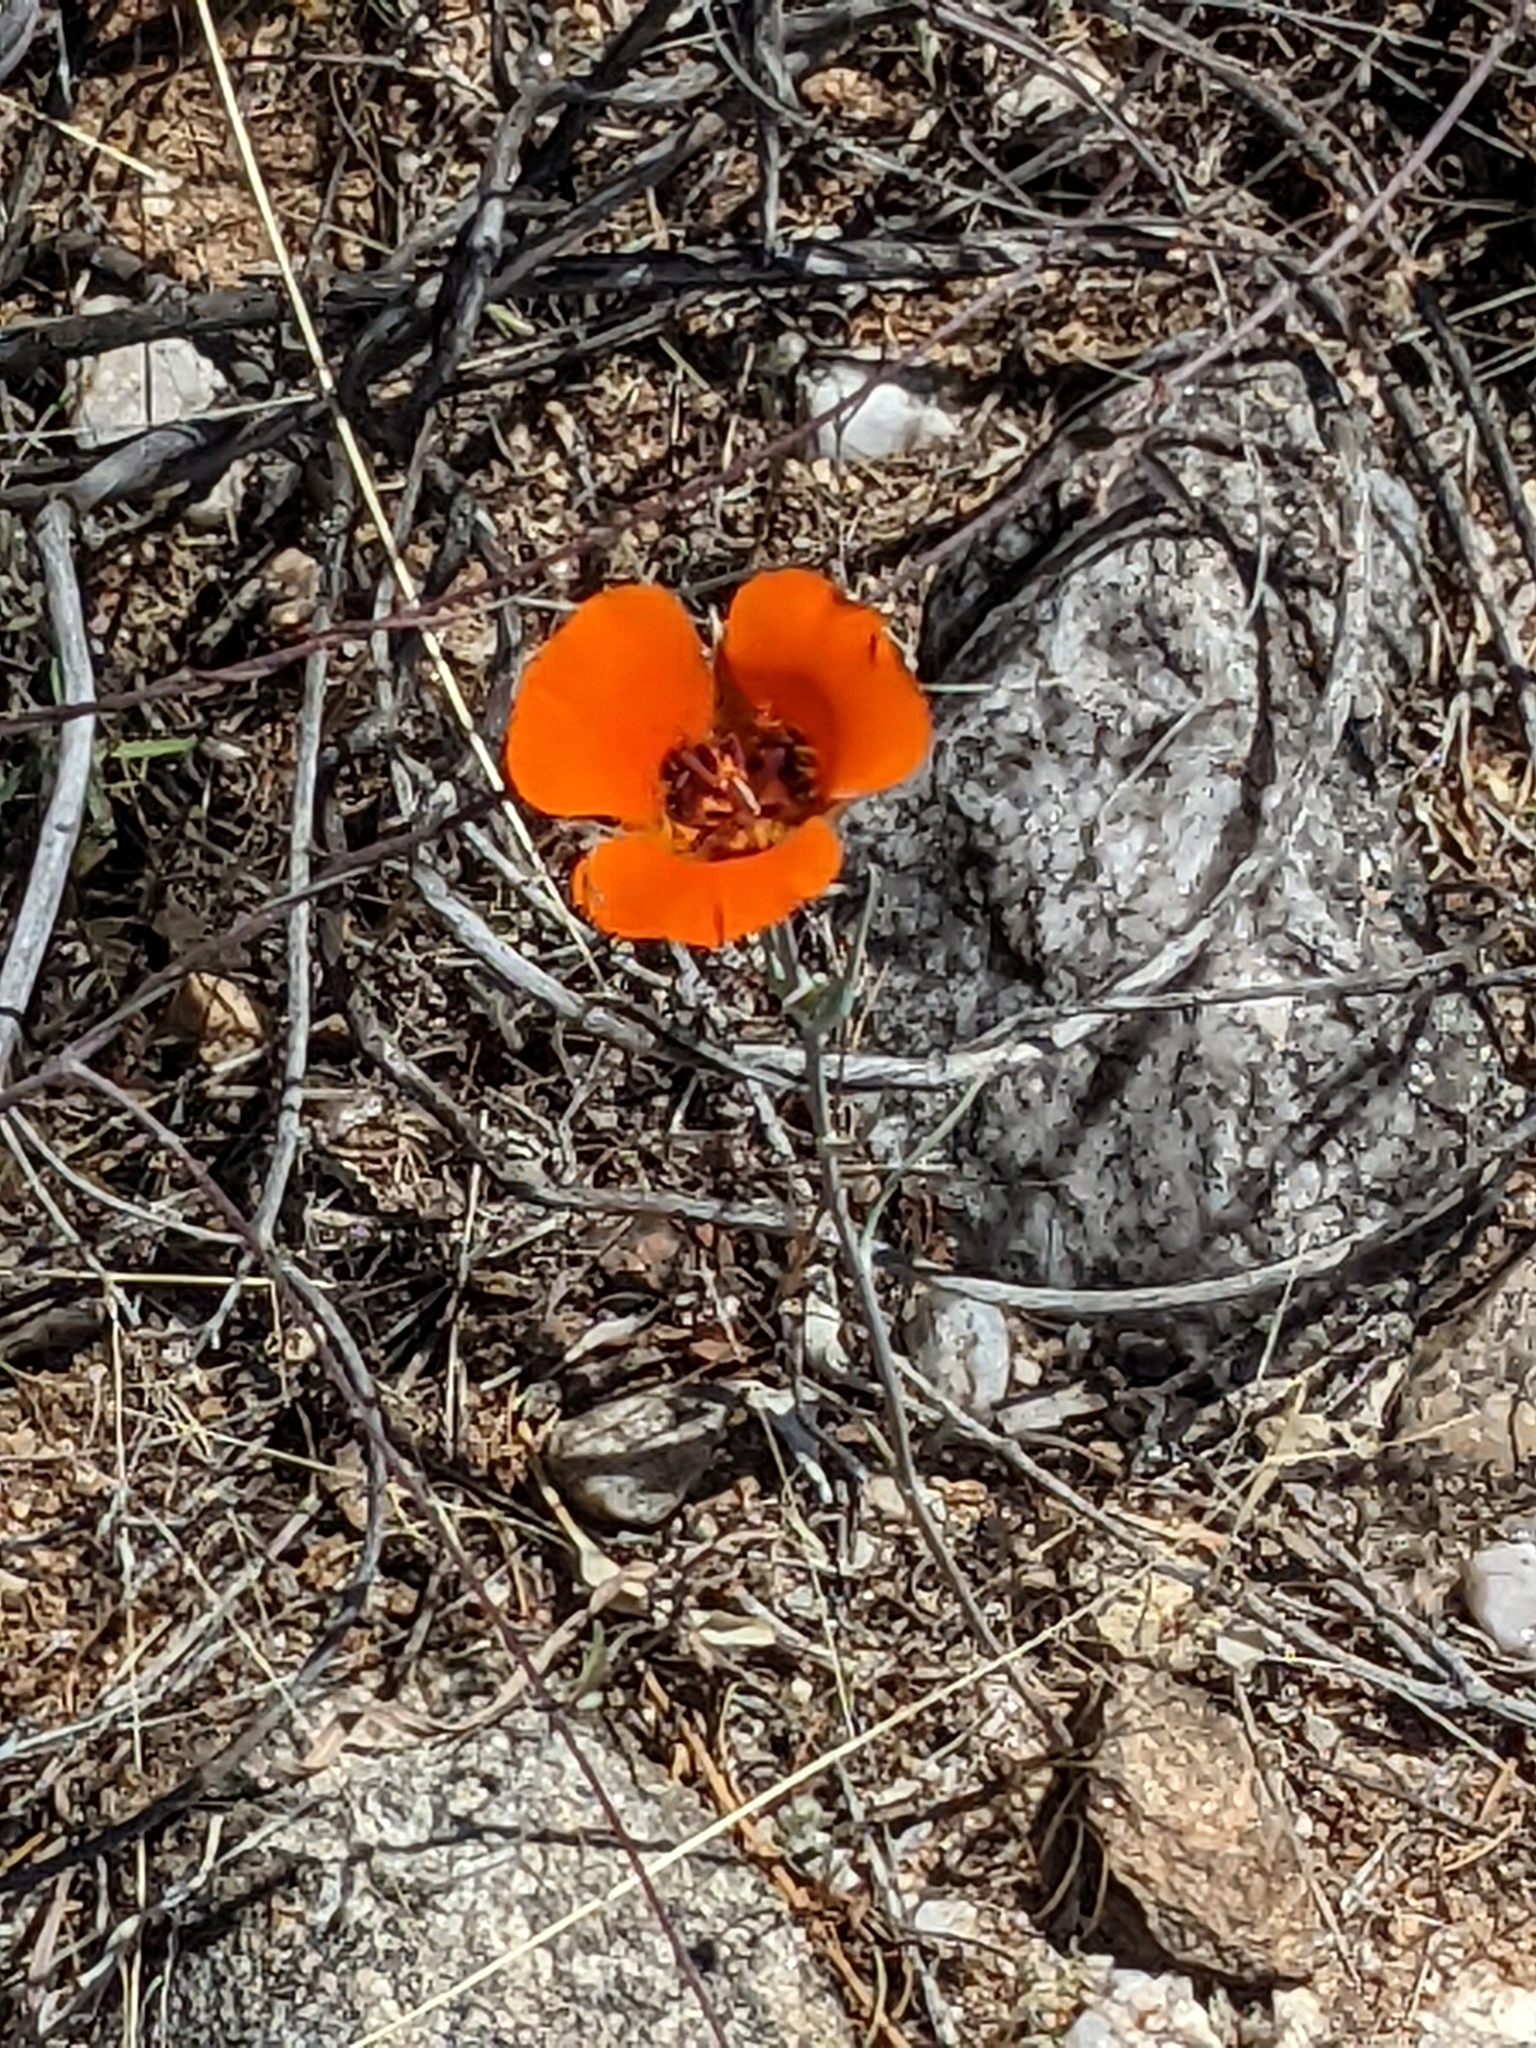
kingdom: Plantae
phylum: Tracheophyta
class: Liliopsida
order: Liliales
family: Liliaceae
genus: Calochortus
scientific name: Calochortus kennedyi
